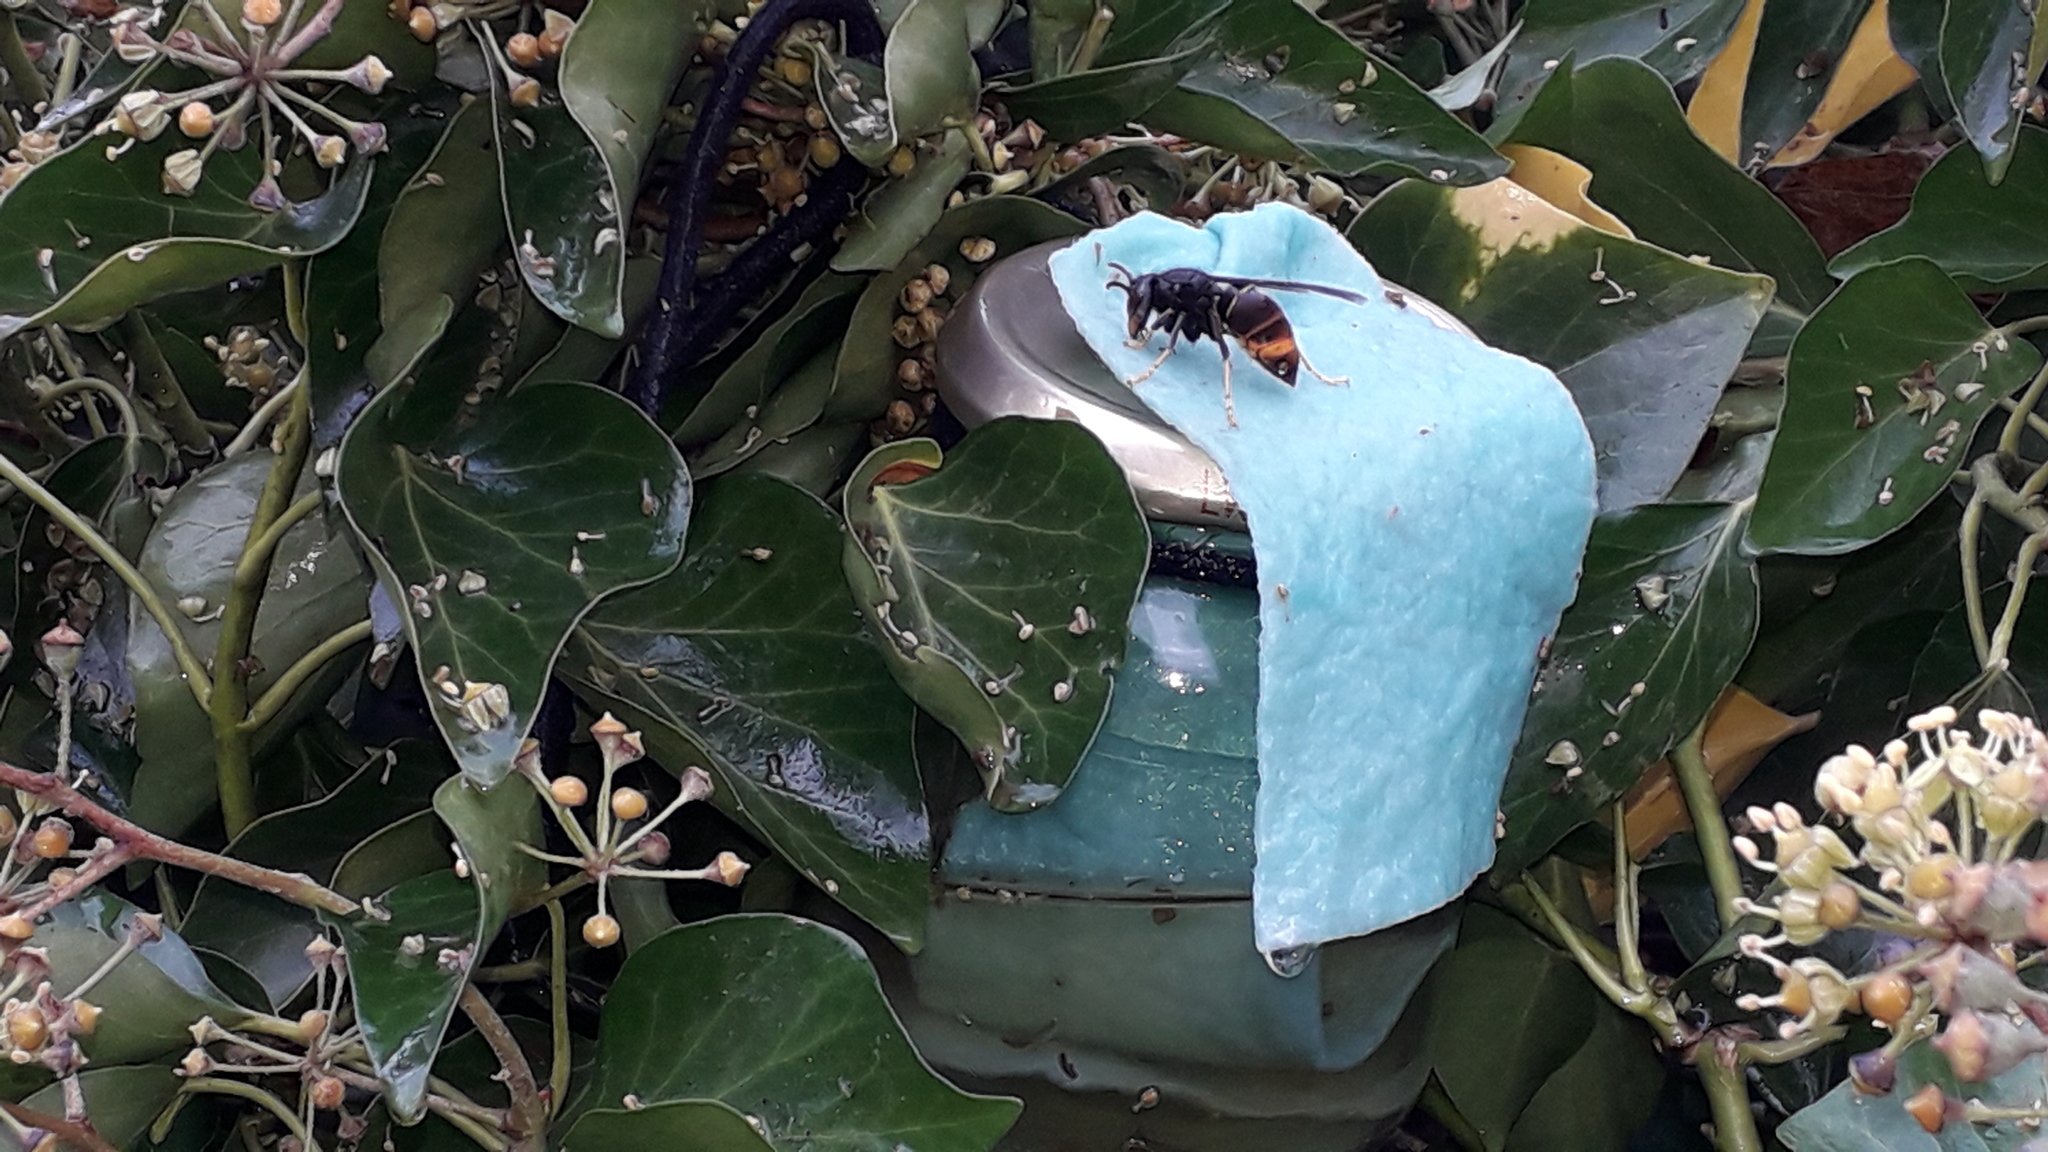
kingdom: Animalia
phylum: Arthropoda
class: Insecta
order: Hymenoptera
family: Vespidae
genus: Vespa
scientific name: Vespa velutina
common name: Asian hornet
